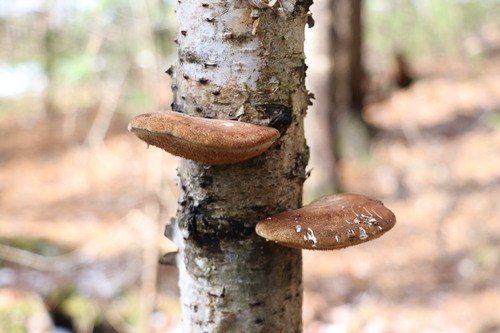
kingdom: Fungi
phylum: Basidiomycota
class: Agaricomycetes
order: Polyporales
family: Fomitopsidaceae
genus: Fomitopsis
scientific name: Fomitopsis betulina
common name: Birch polypore
